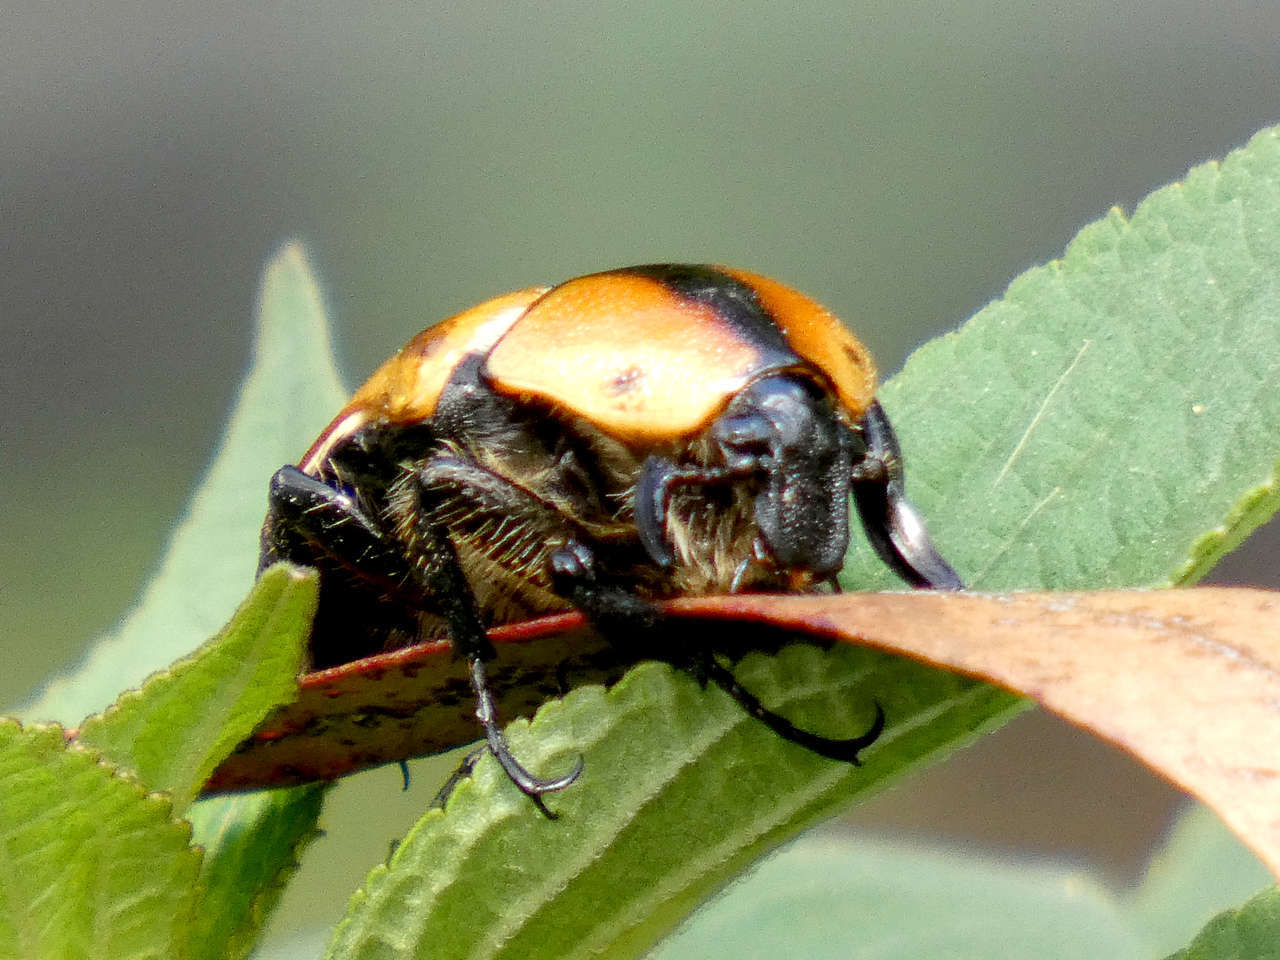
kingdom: Animalia
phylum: Arthropoda
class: Insecta
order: Coleoptera
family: Scarabaeidae
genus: Chondropyga
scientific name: Chondropyga dorsalis
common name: Cowboy beetle
